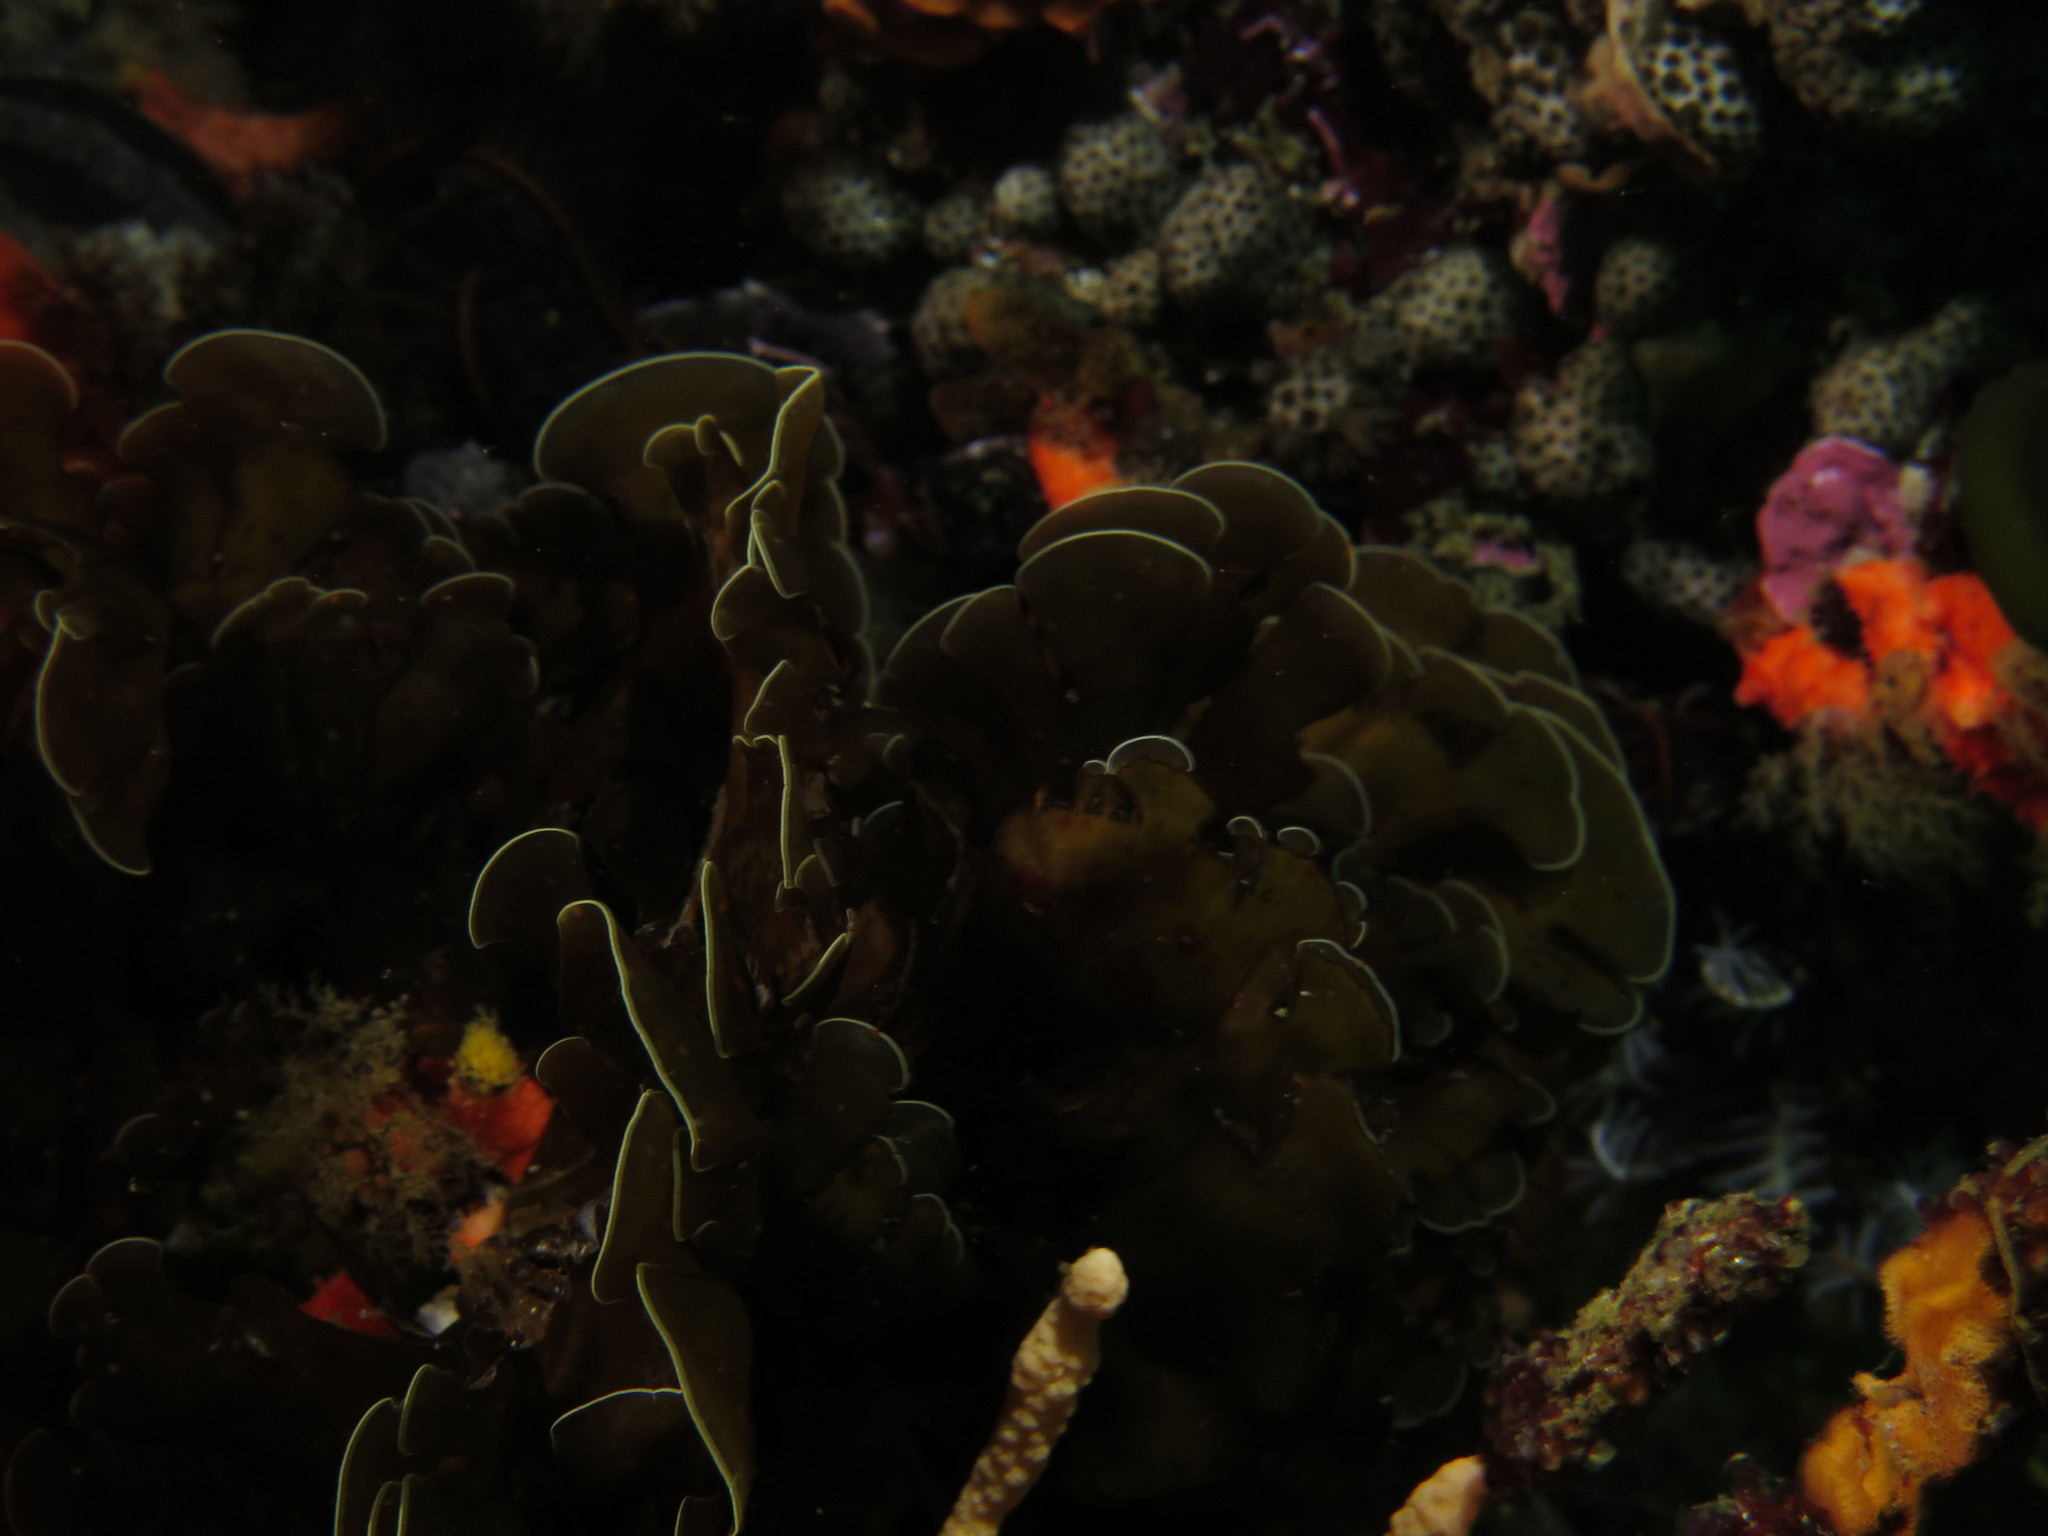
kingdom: Chromista
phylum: Ochrophyta
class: Phaeophyceae
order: Dictyotales
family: Dictyotaceae
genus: Exallosorus
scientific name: Exallosorus
